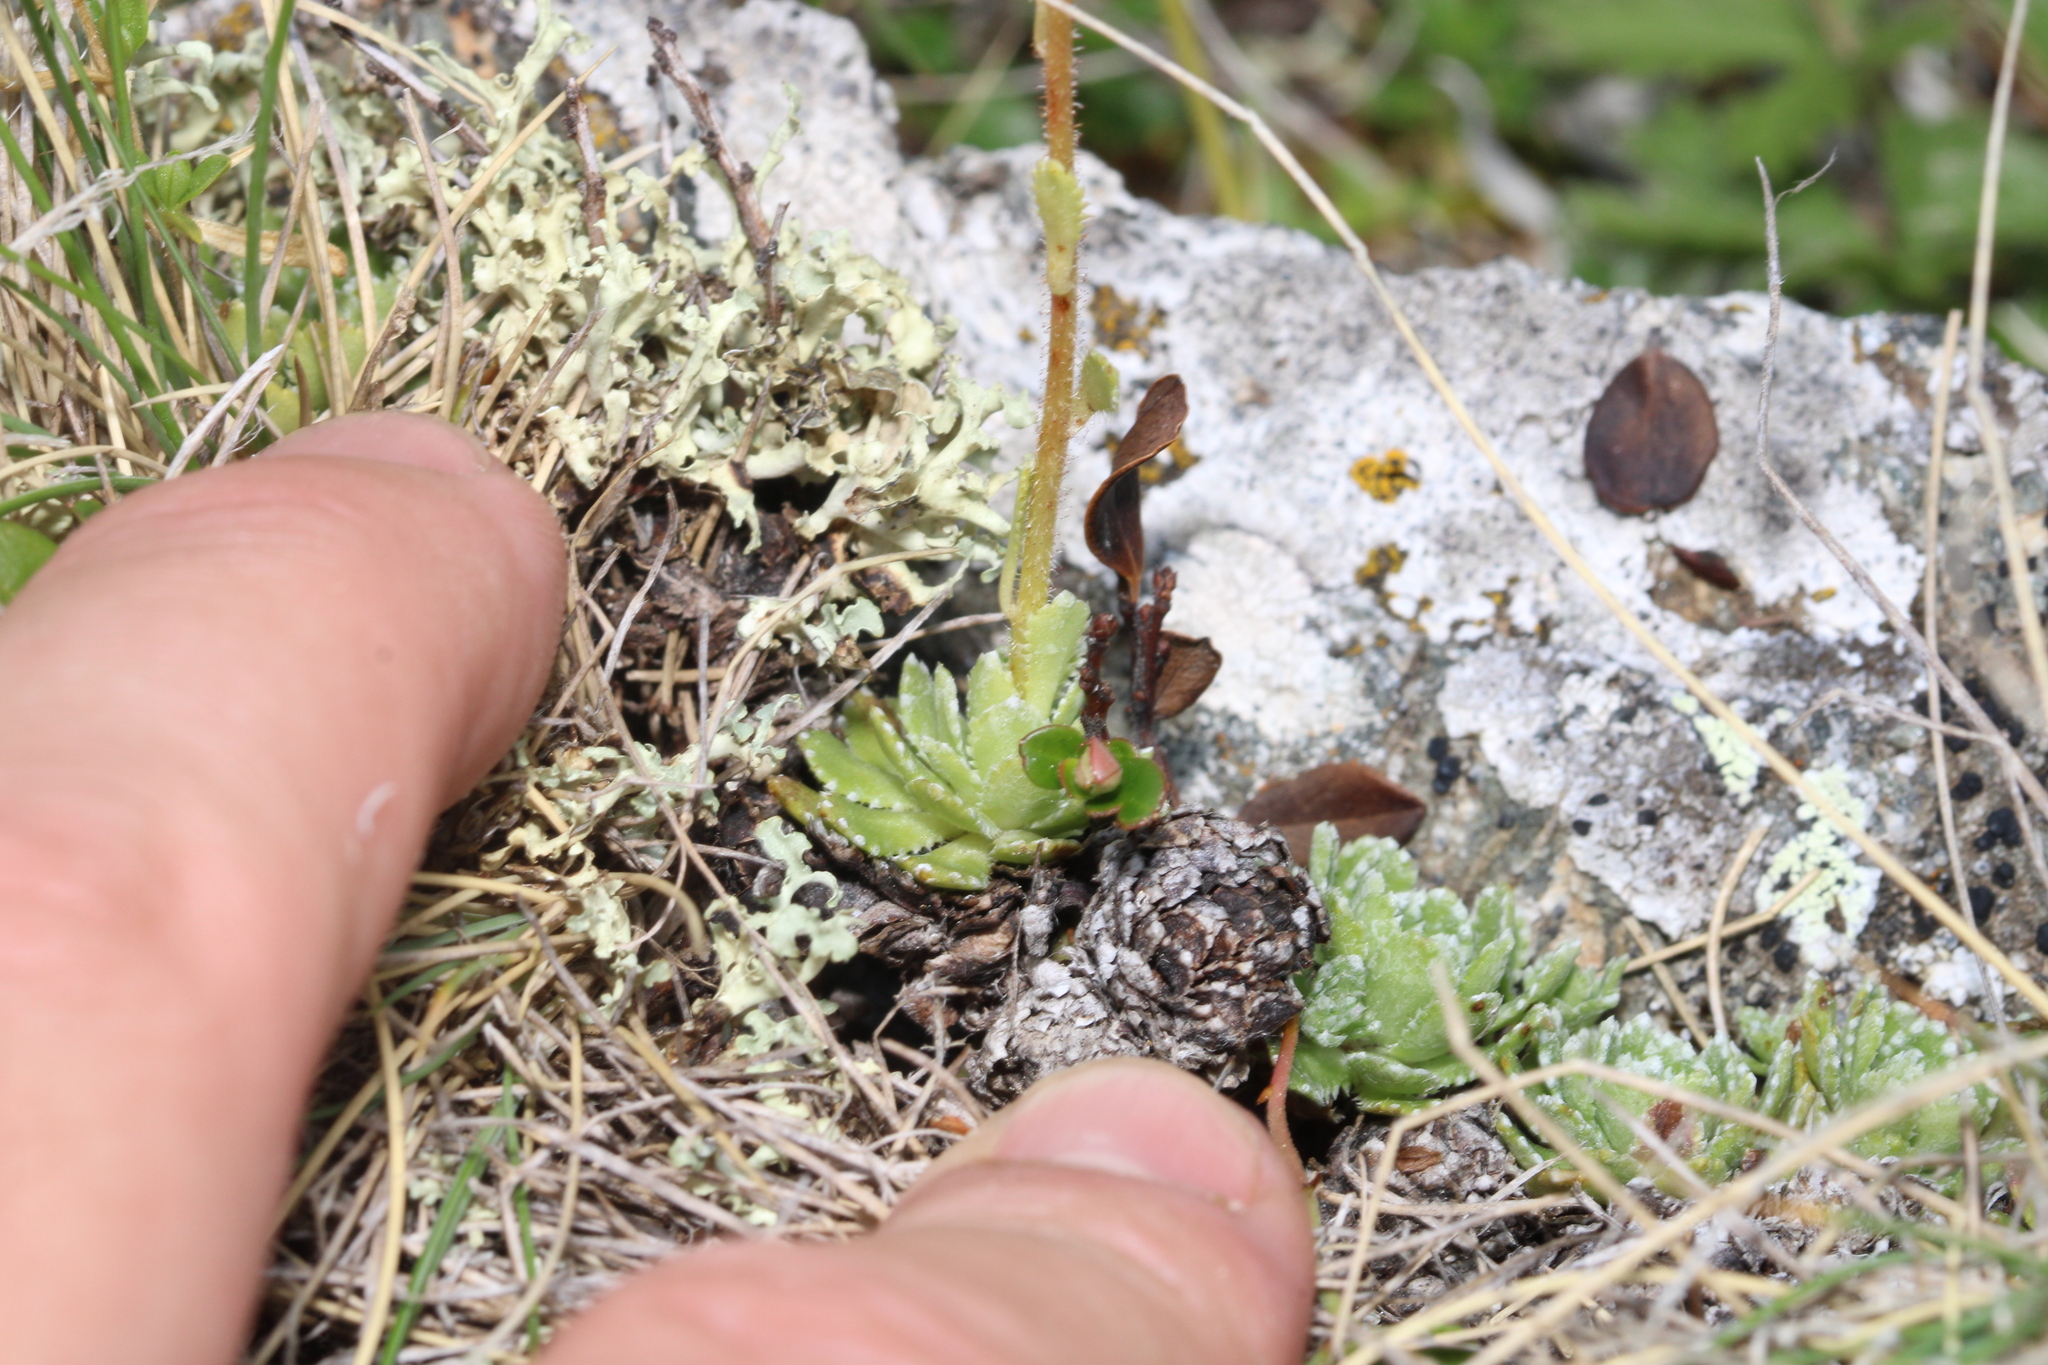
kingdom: Plantae
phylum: Tracheophyta
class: Magnoliopsida
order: Saxifragales
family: Saxifragaceae
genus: Saxifraga
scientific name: Saxifraga paniculata
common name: Livelong saxifrage
